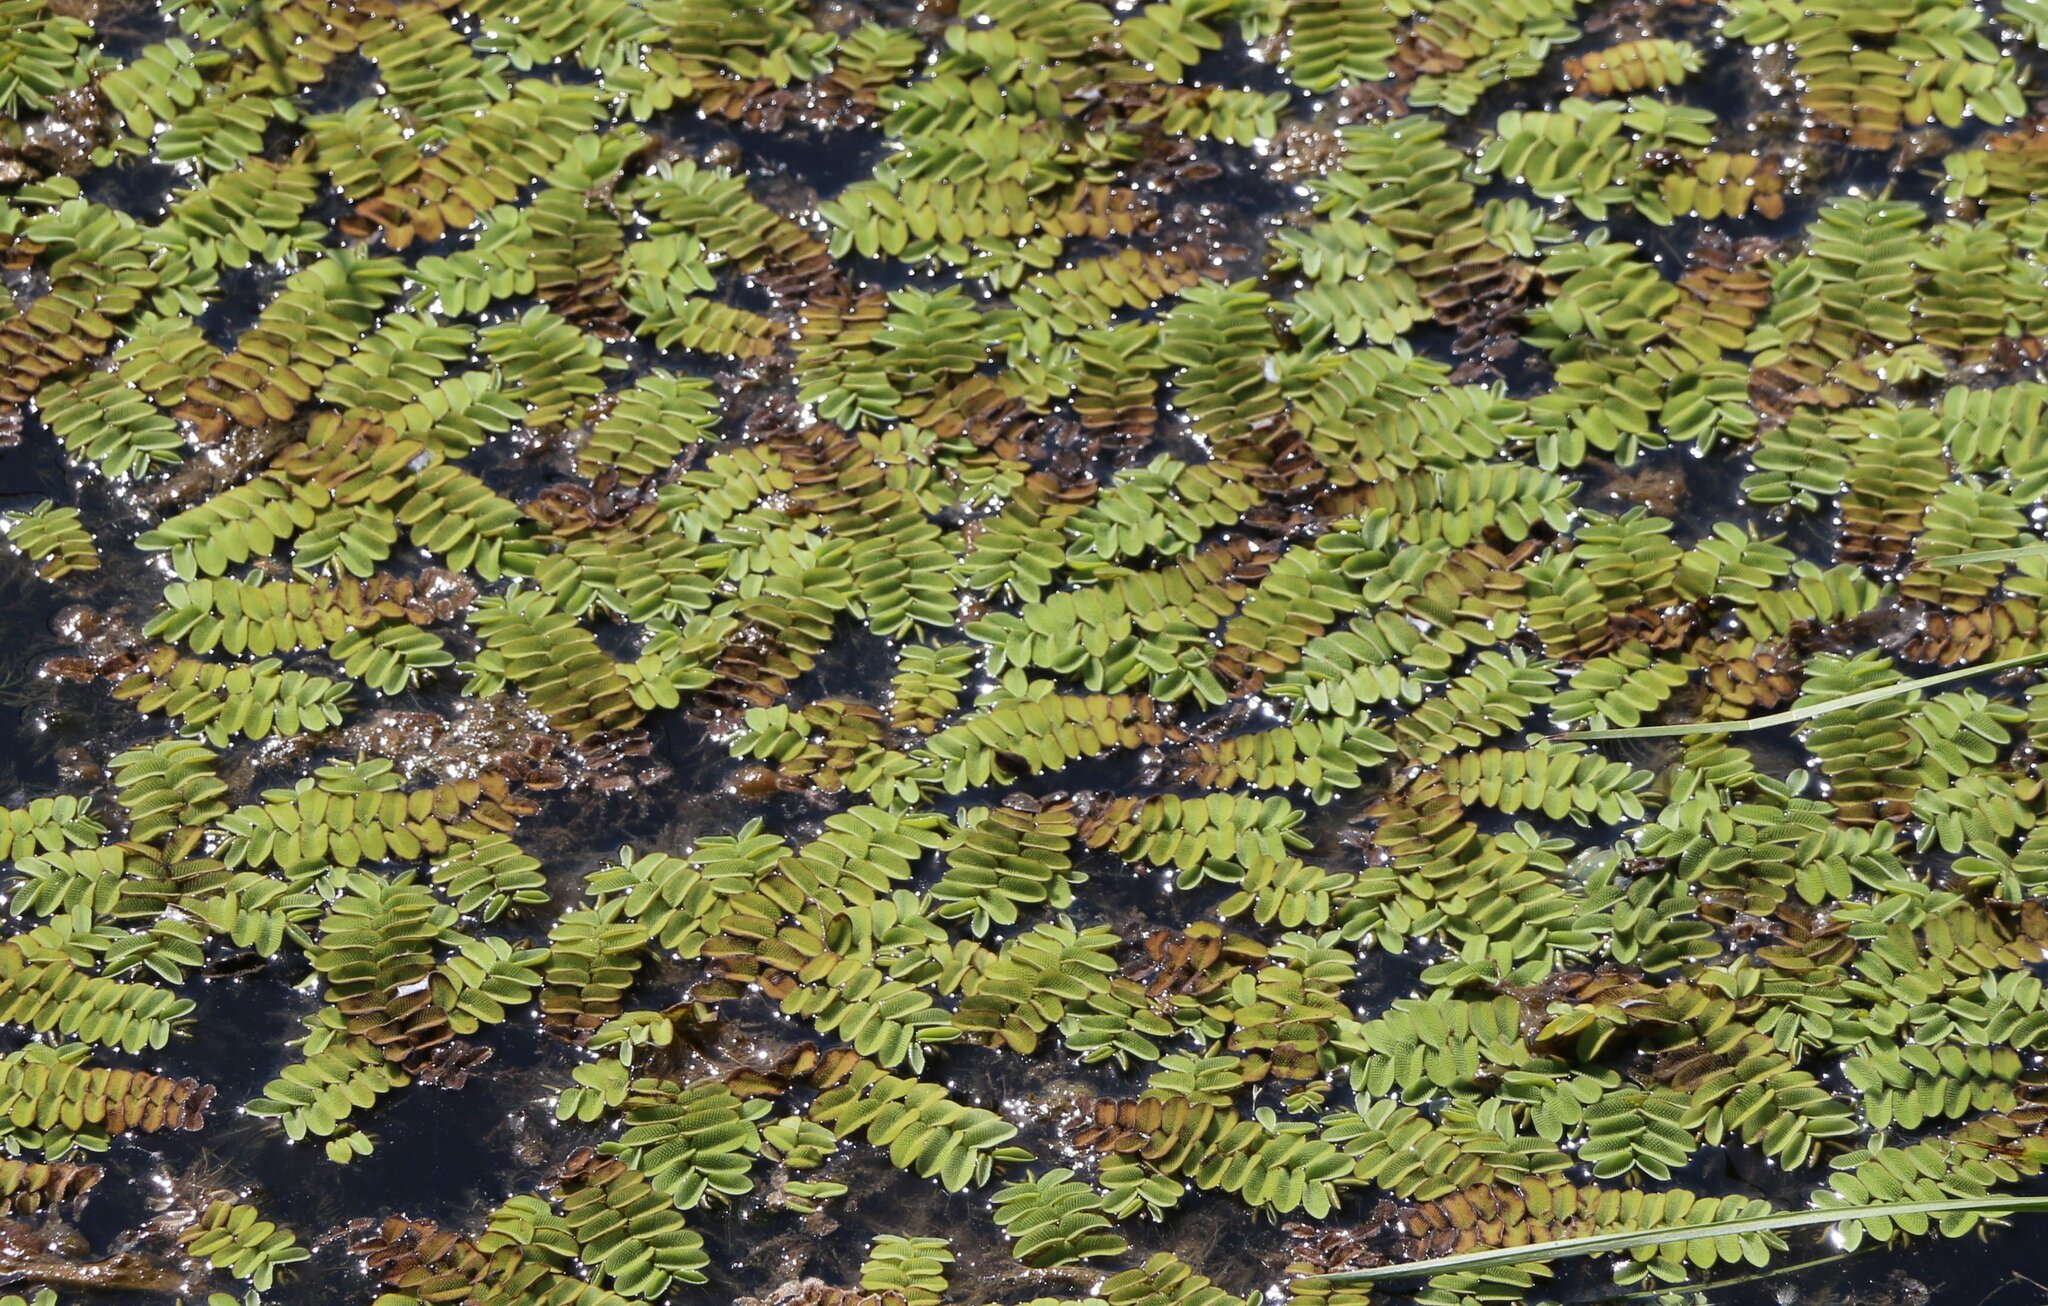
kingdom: Plantae
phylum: Tracheophyta
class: Polypodiopsida
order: Salviniales
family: Salviniaceae
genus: Salvinia
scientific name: Salvinia natans
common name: Floating fern
